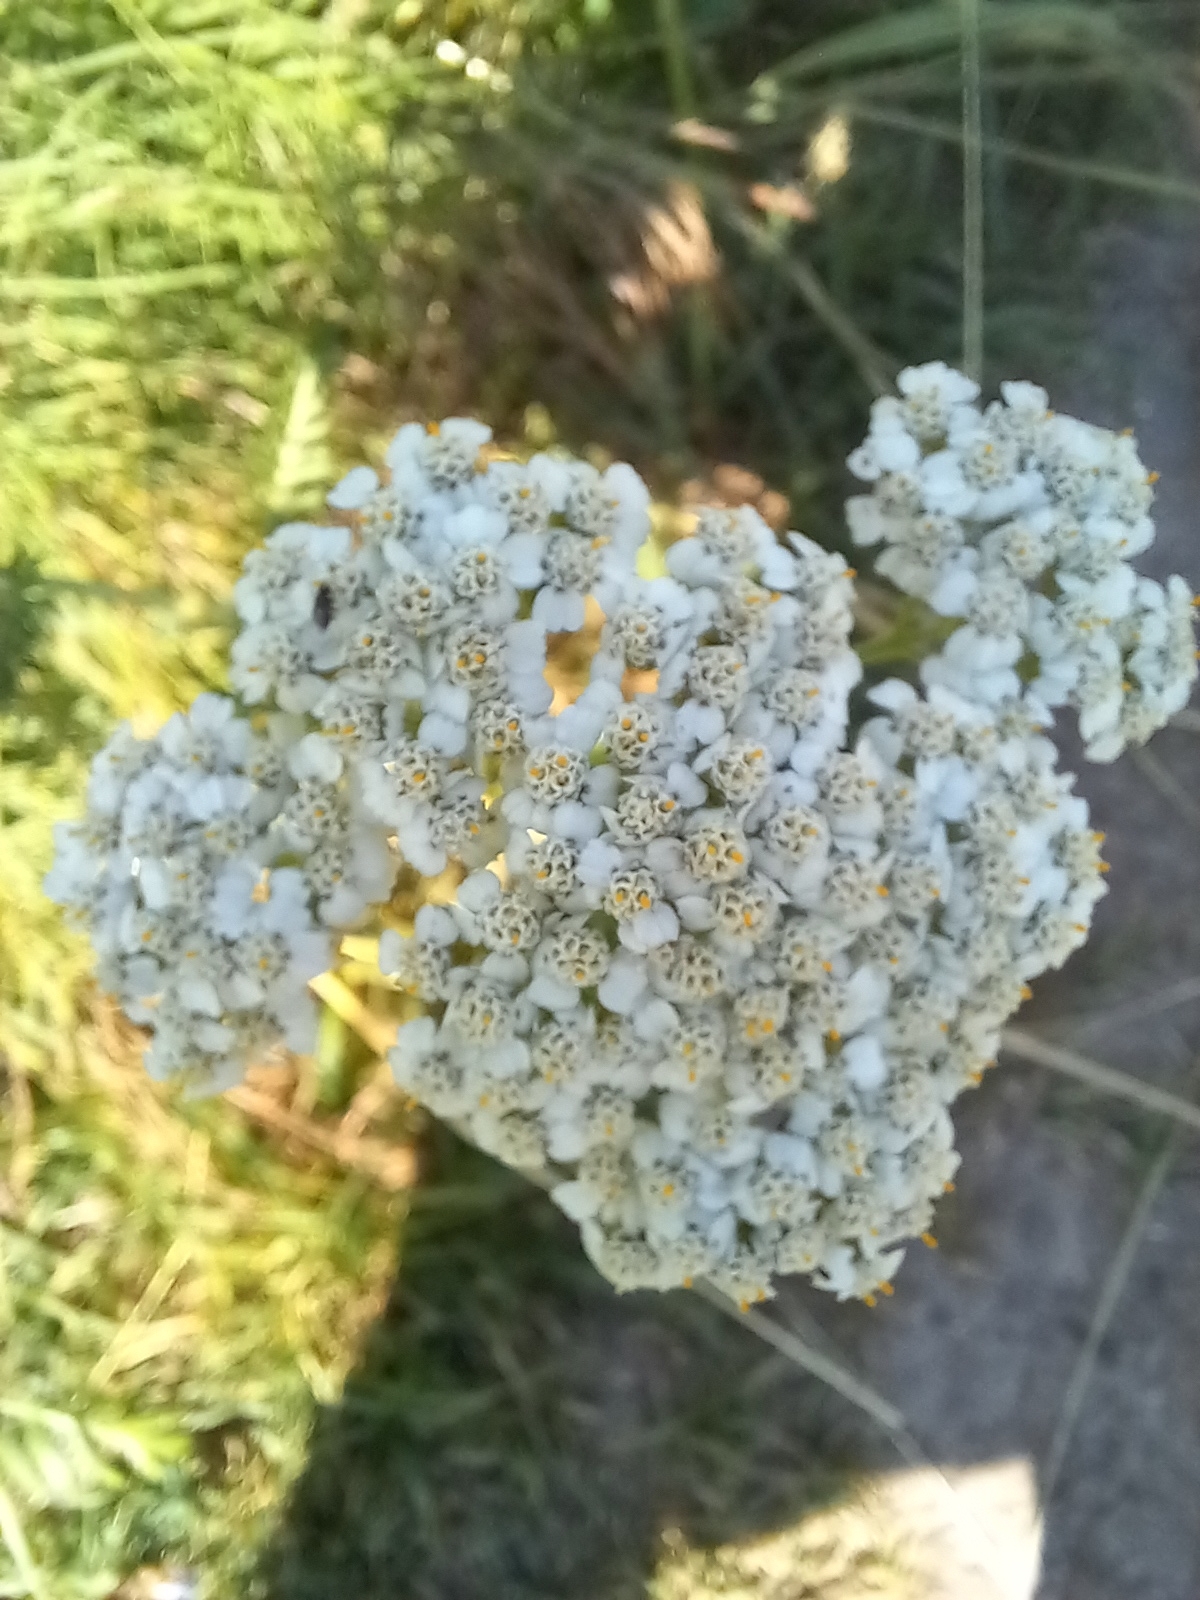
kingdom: Plantae
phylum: Tracheophyta
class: Magnoliopsida
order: Asterales
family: Asteraceae
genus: Achillea
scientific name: Achillea millefolium
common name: Yarrow
